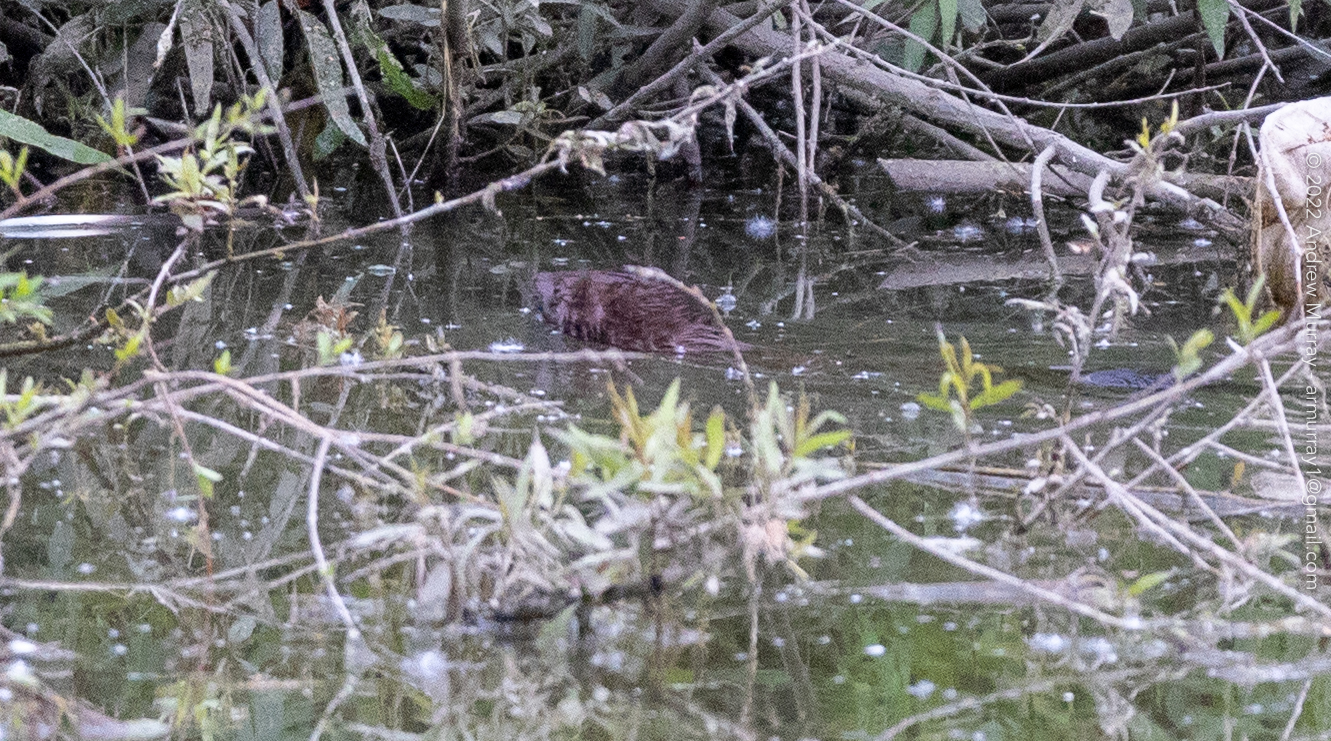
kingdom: Animalia
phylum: Chordata
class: Mammalia
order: Carnivora
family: Mustelidae
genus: Mustela
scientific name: Mustela
